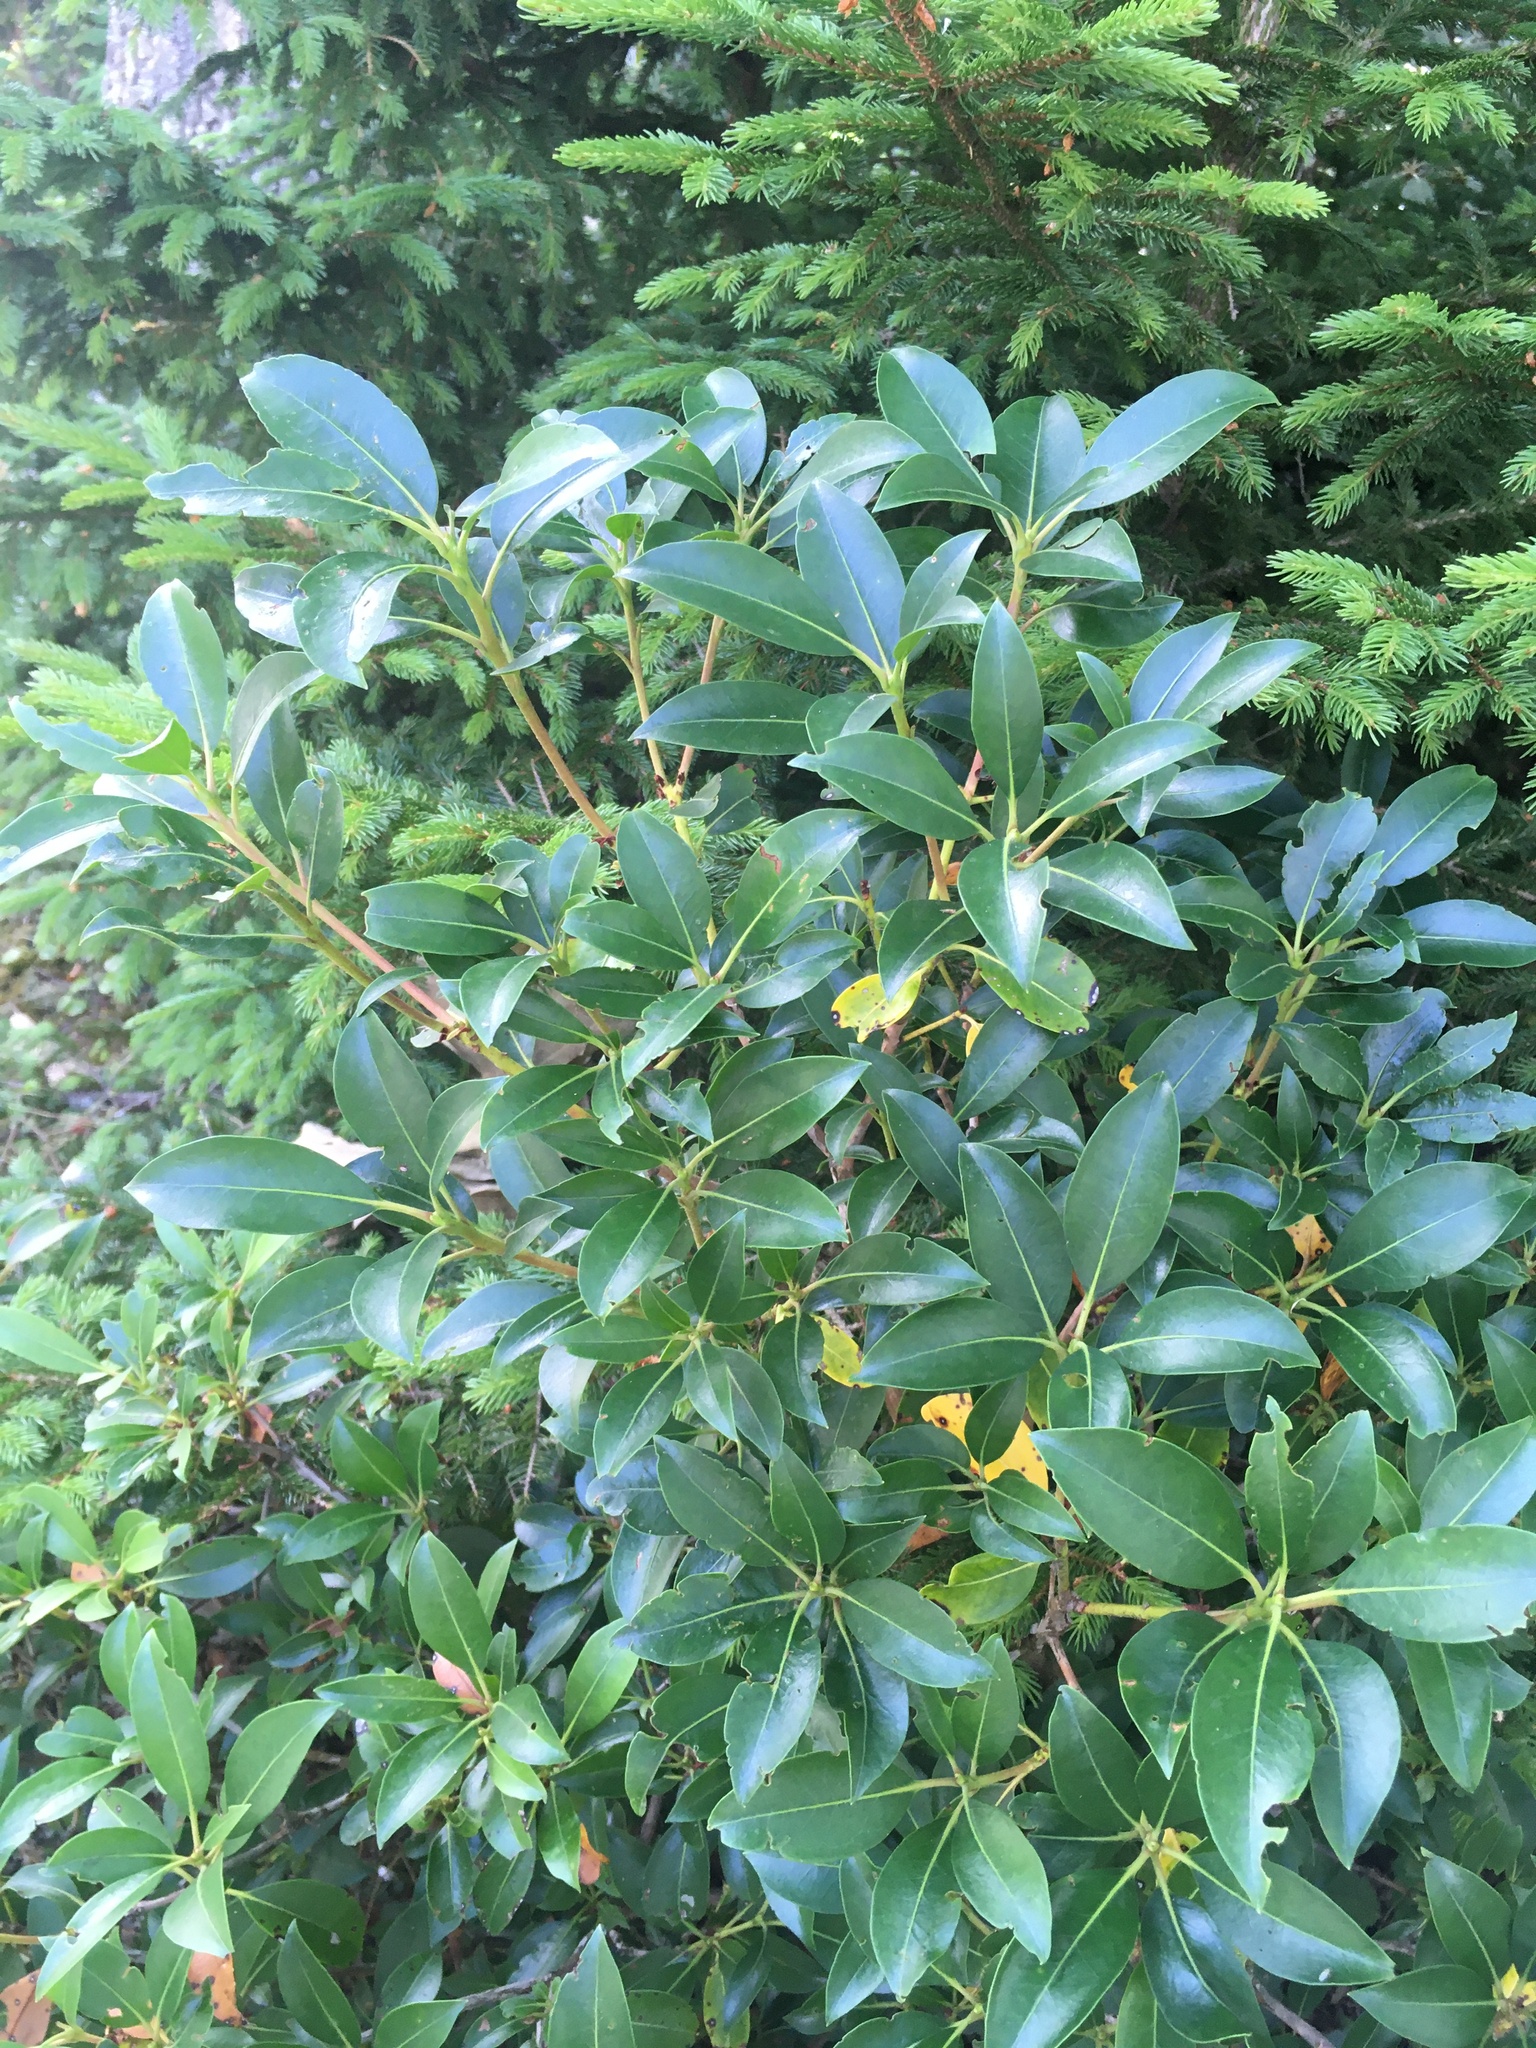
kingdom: Plantae
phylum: Tracheophyta
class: Magnoliopsida
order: Ericales
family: Ericaceae
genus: Kalmia
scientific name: Kalmia latifolia
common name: Mountain-laurel
